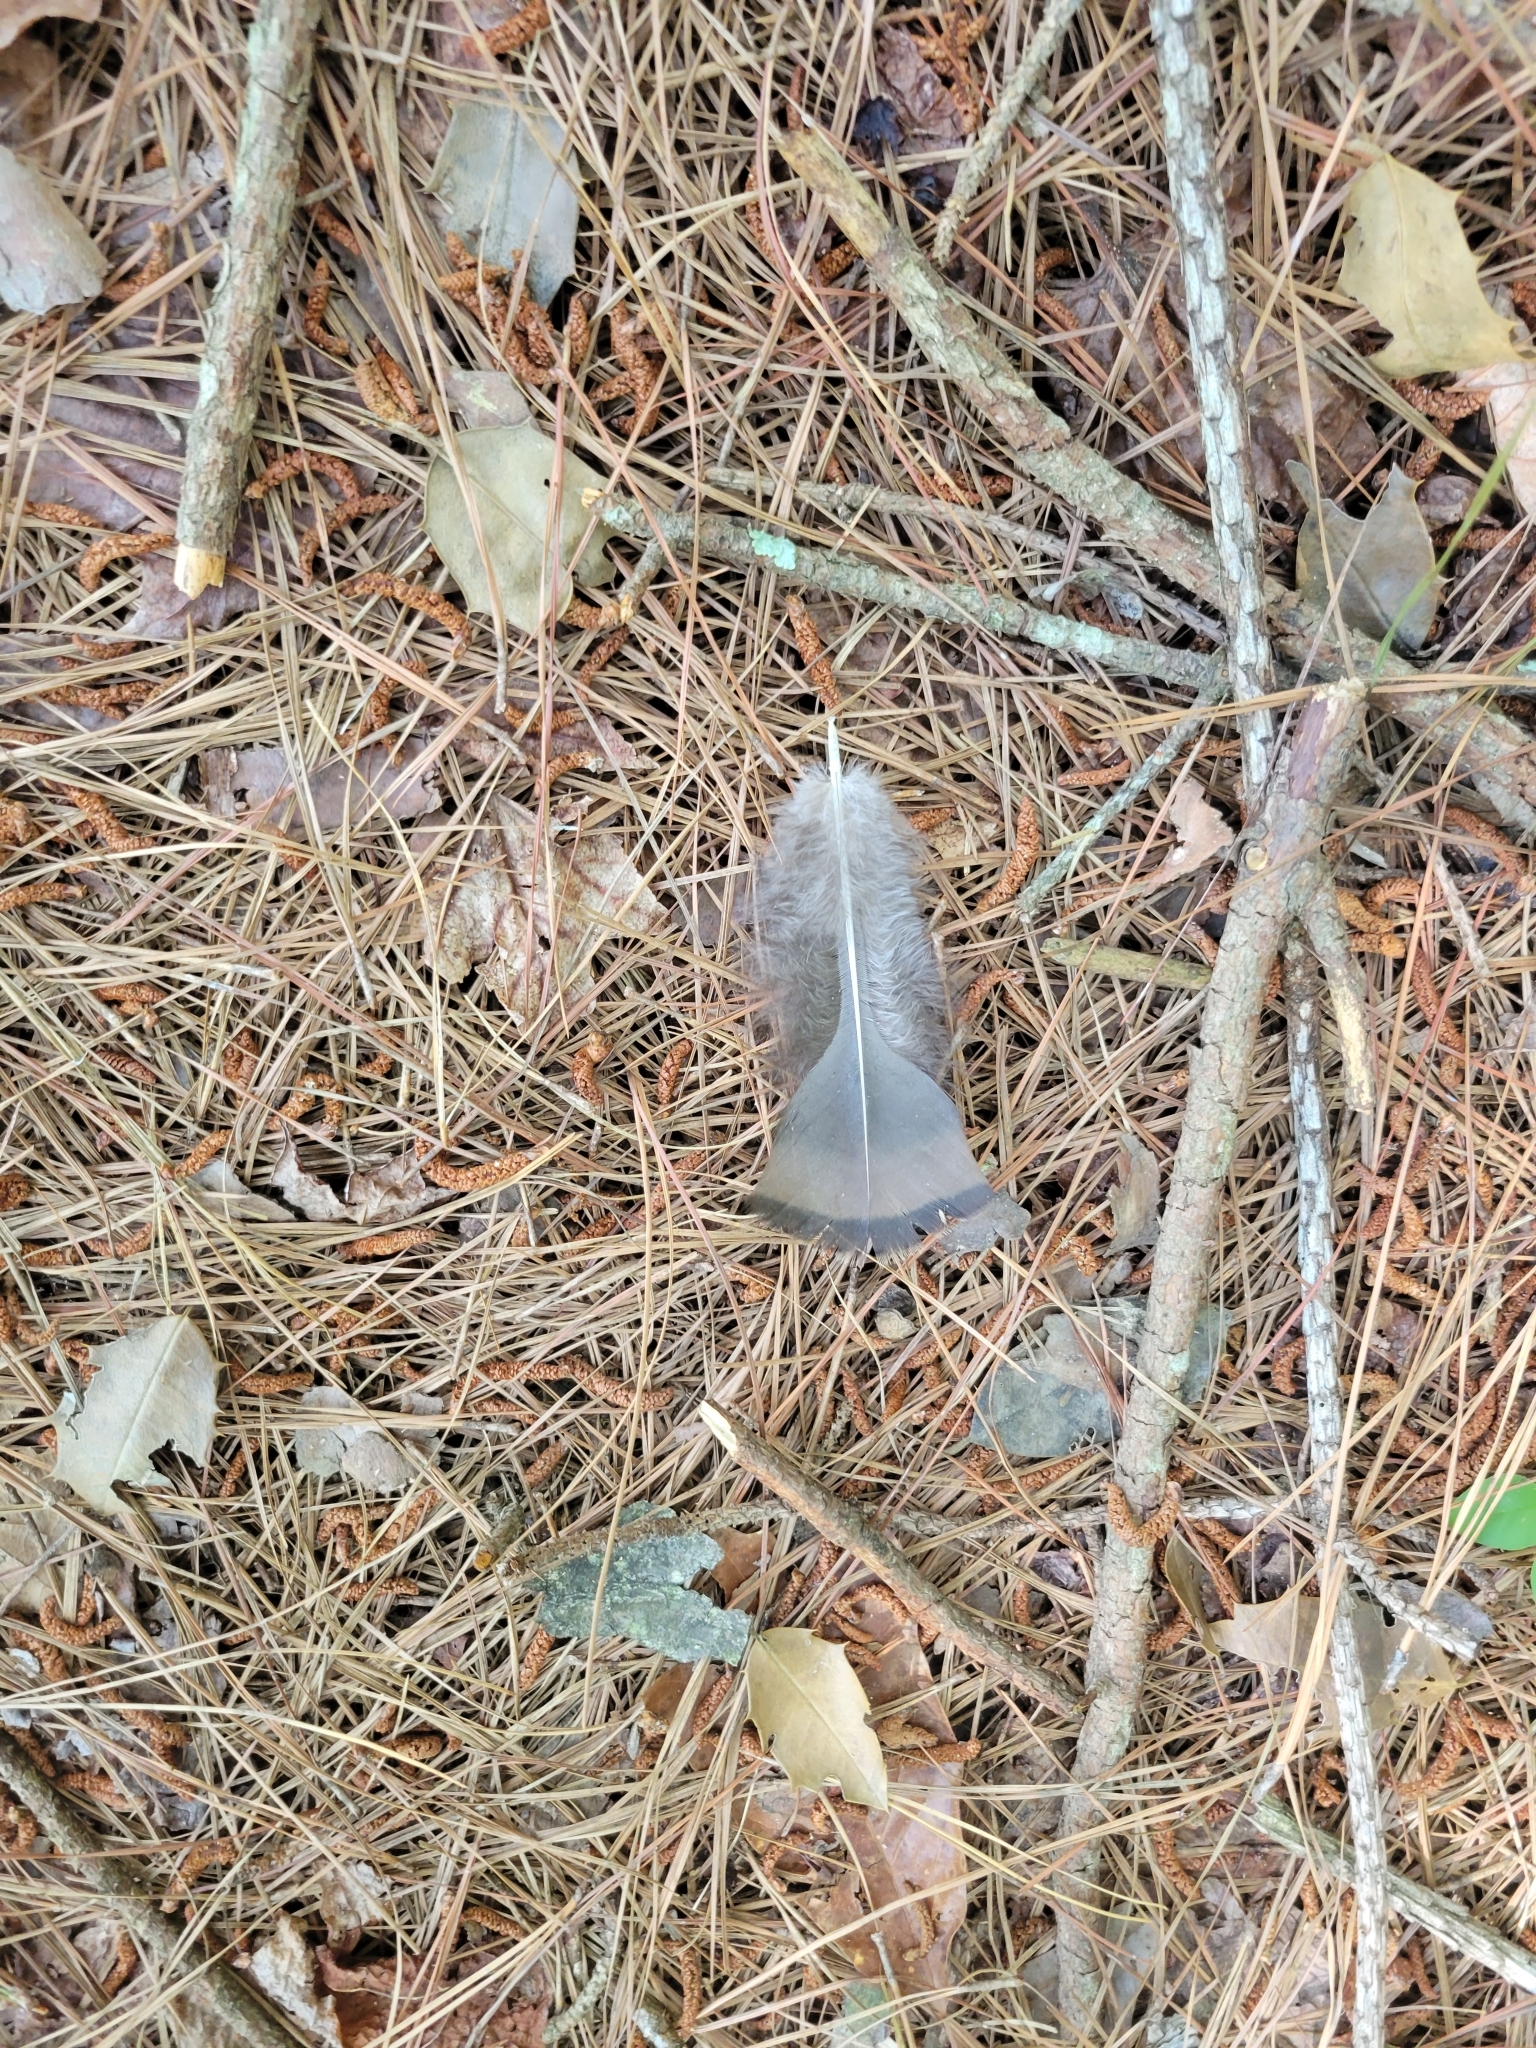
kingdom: Animalia
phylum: Chordata
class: Aves
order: Galliformes
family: Phasianidae
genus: Meleagris
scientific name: Meleagris gallopavo
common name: Wild turkey
